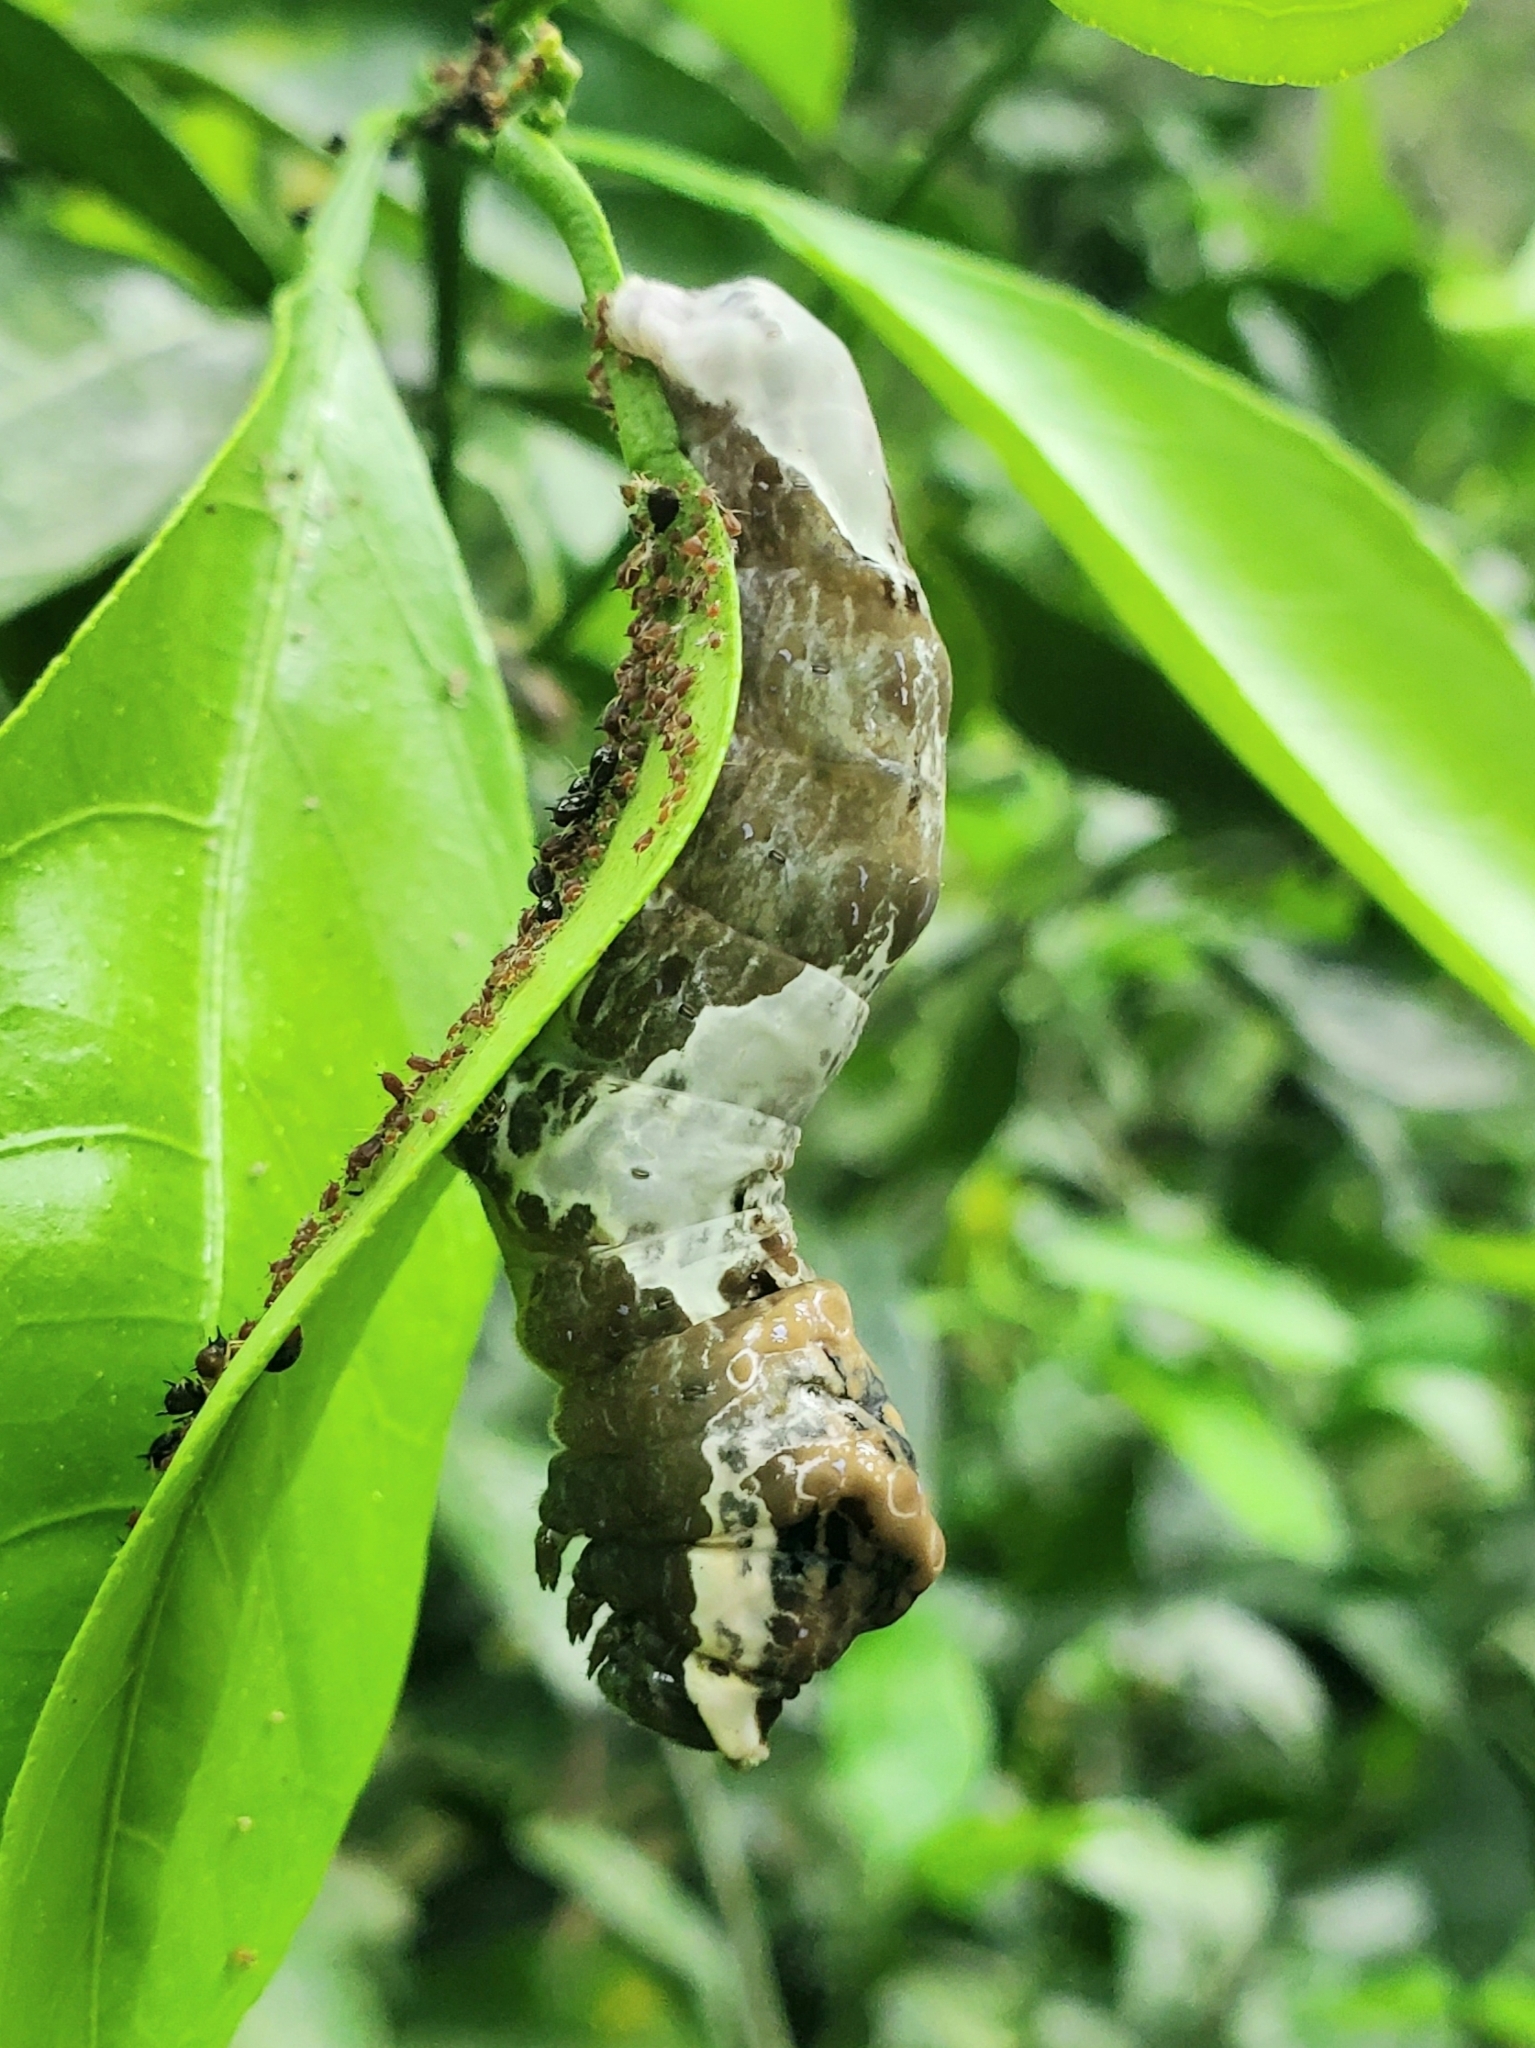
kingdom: Animalia
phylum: Arthropoda
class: Insecta
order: Lepidoptera
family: Papilionidae
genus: Papilio
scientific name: Papilio cresphontes
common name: Giant swallowtail
